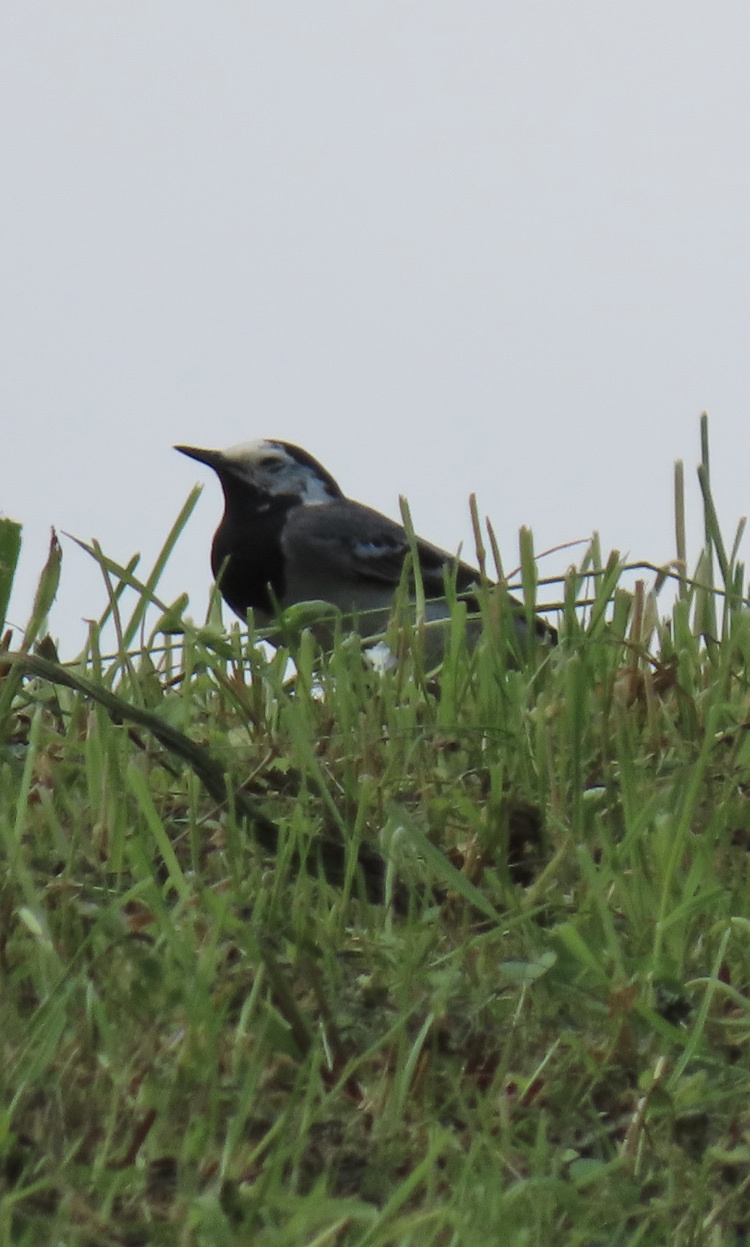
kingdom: Animalia
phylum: Chordata
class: Aves
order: Passeriformes
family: Motacillidae
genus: Motacilla
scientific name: Motacilla alba
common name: White wagtail
